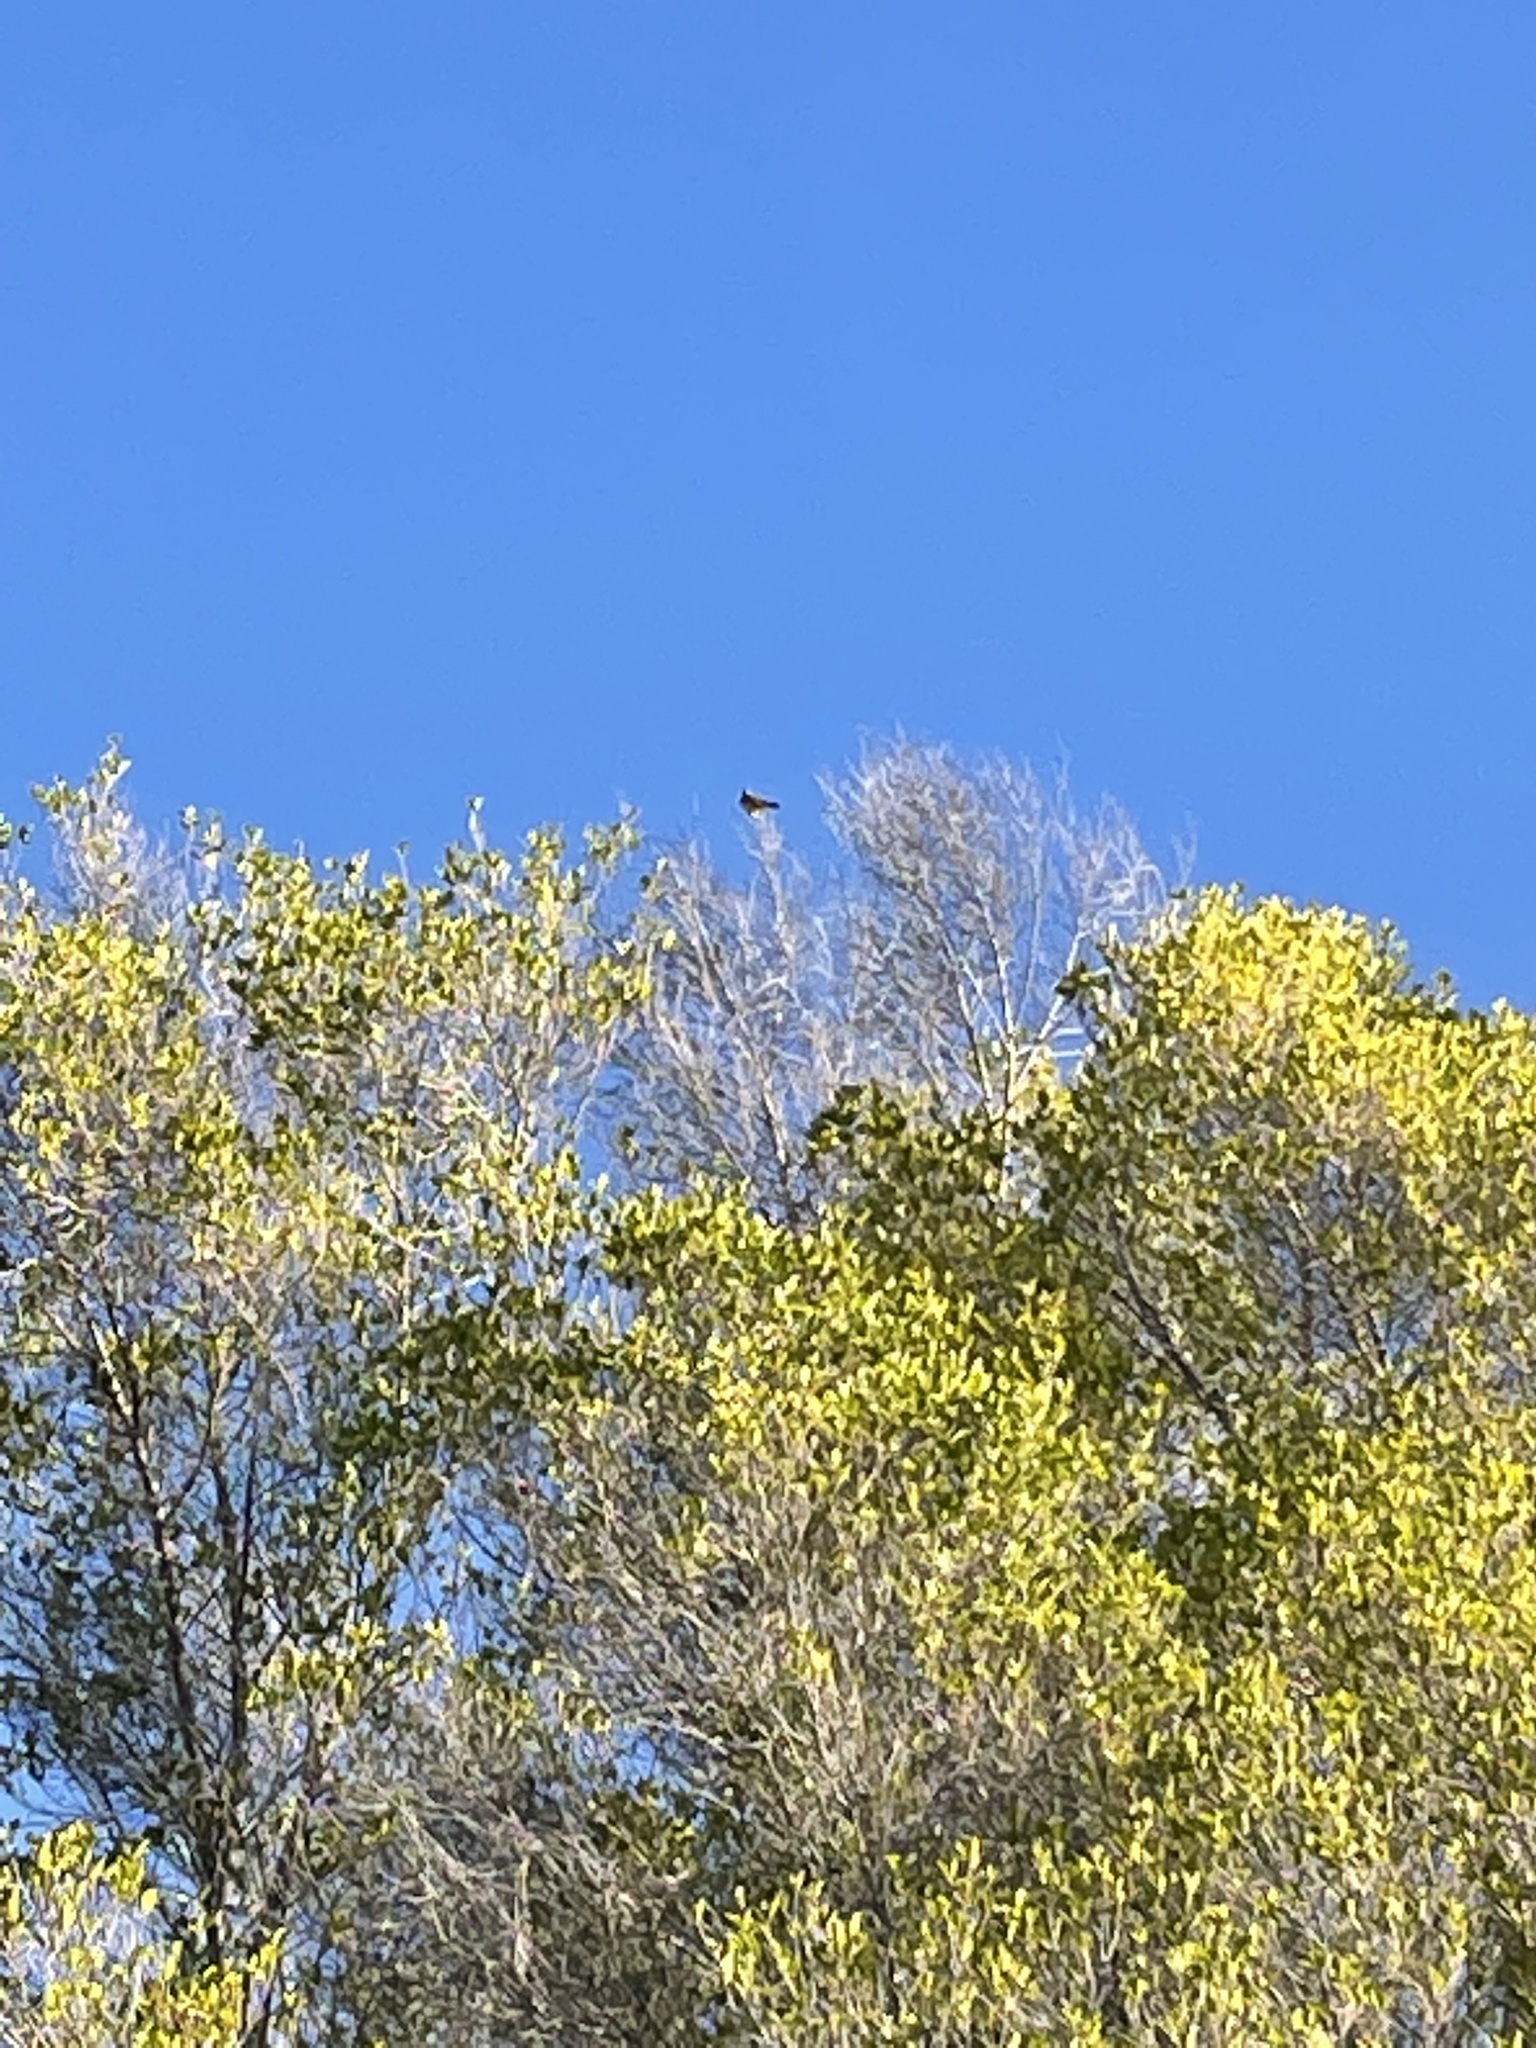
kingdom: Animalia
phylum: Chordata
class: Aves
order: Passeriformes
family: Icteridae
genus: Icterus
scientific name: Icterus cucullatus
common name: Hooded oriole
